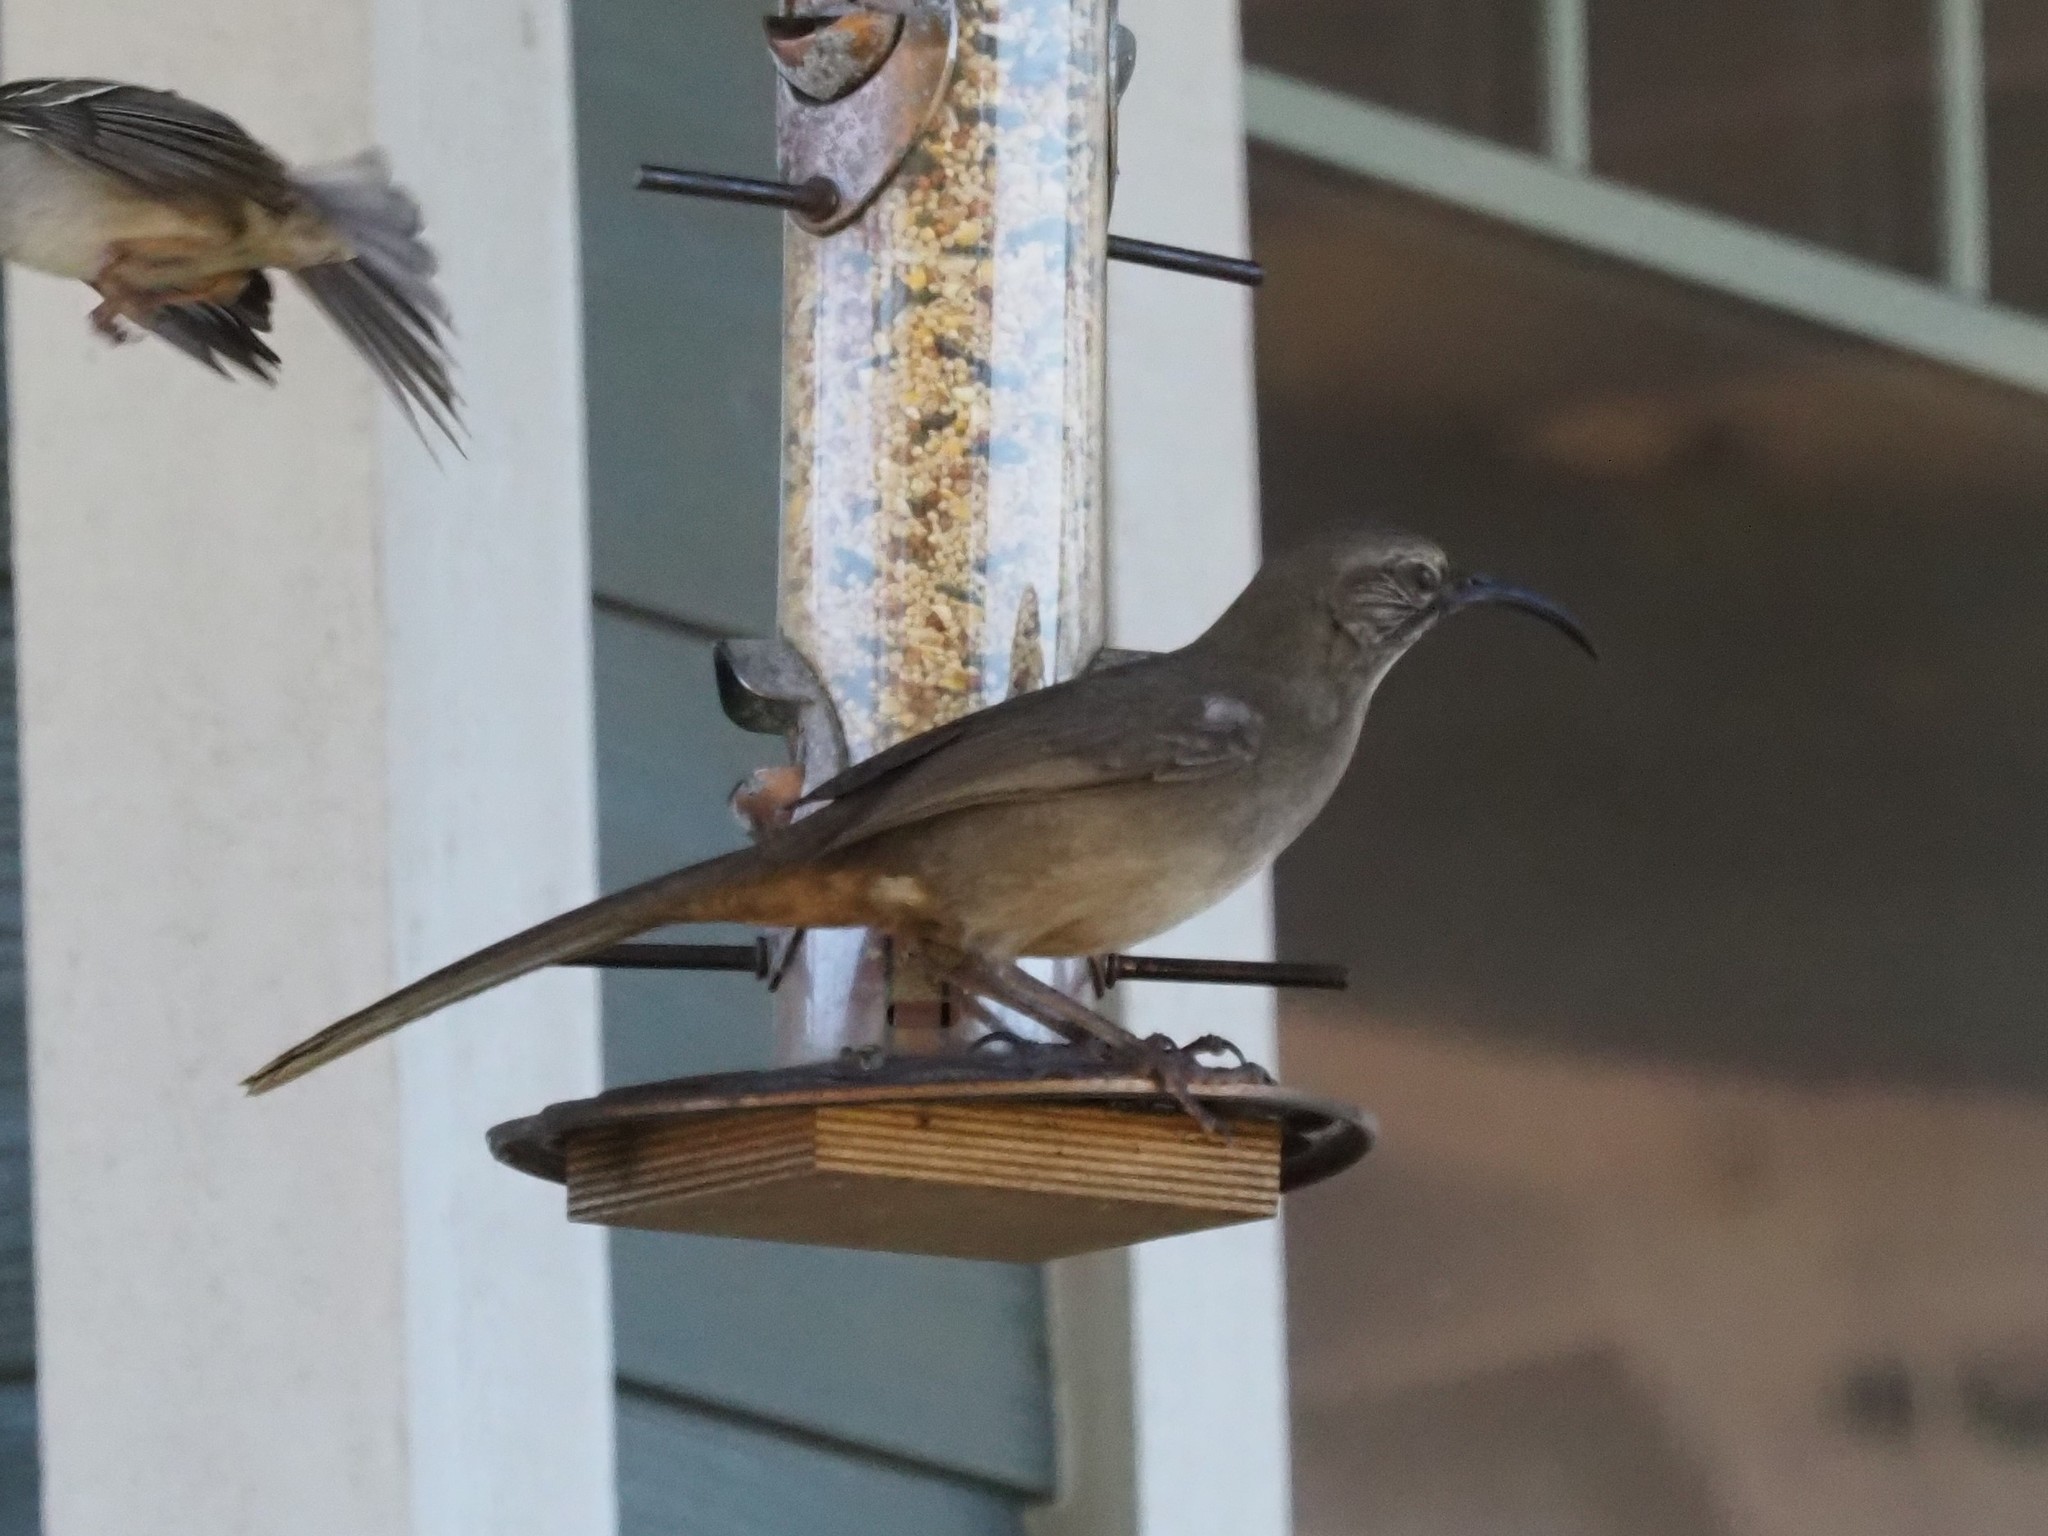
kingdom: Animalia
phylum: Chordata
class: Aves
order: Passeriformes
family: Mimidae
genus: Toxostoma
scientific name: Toxostoma redivivum
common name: California thrasher
